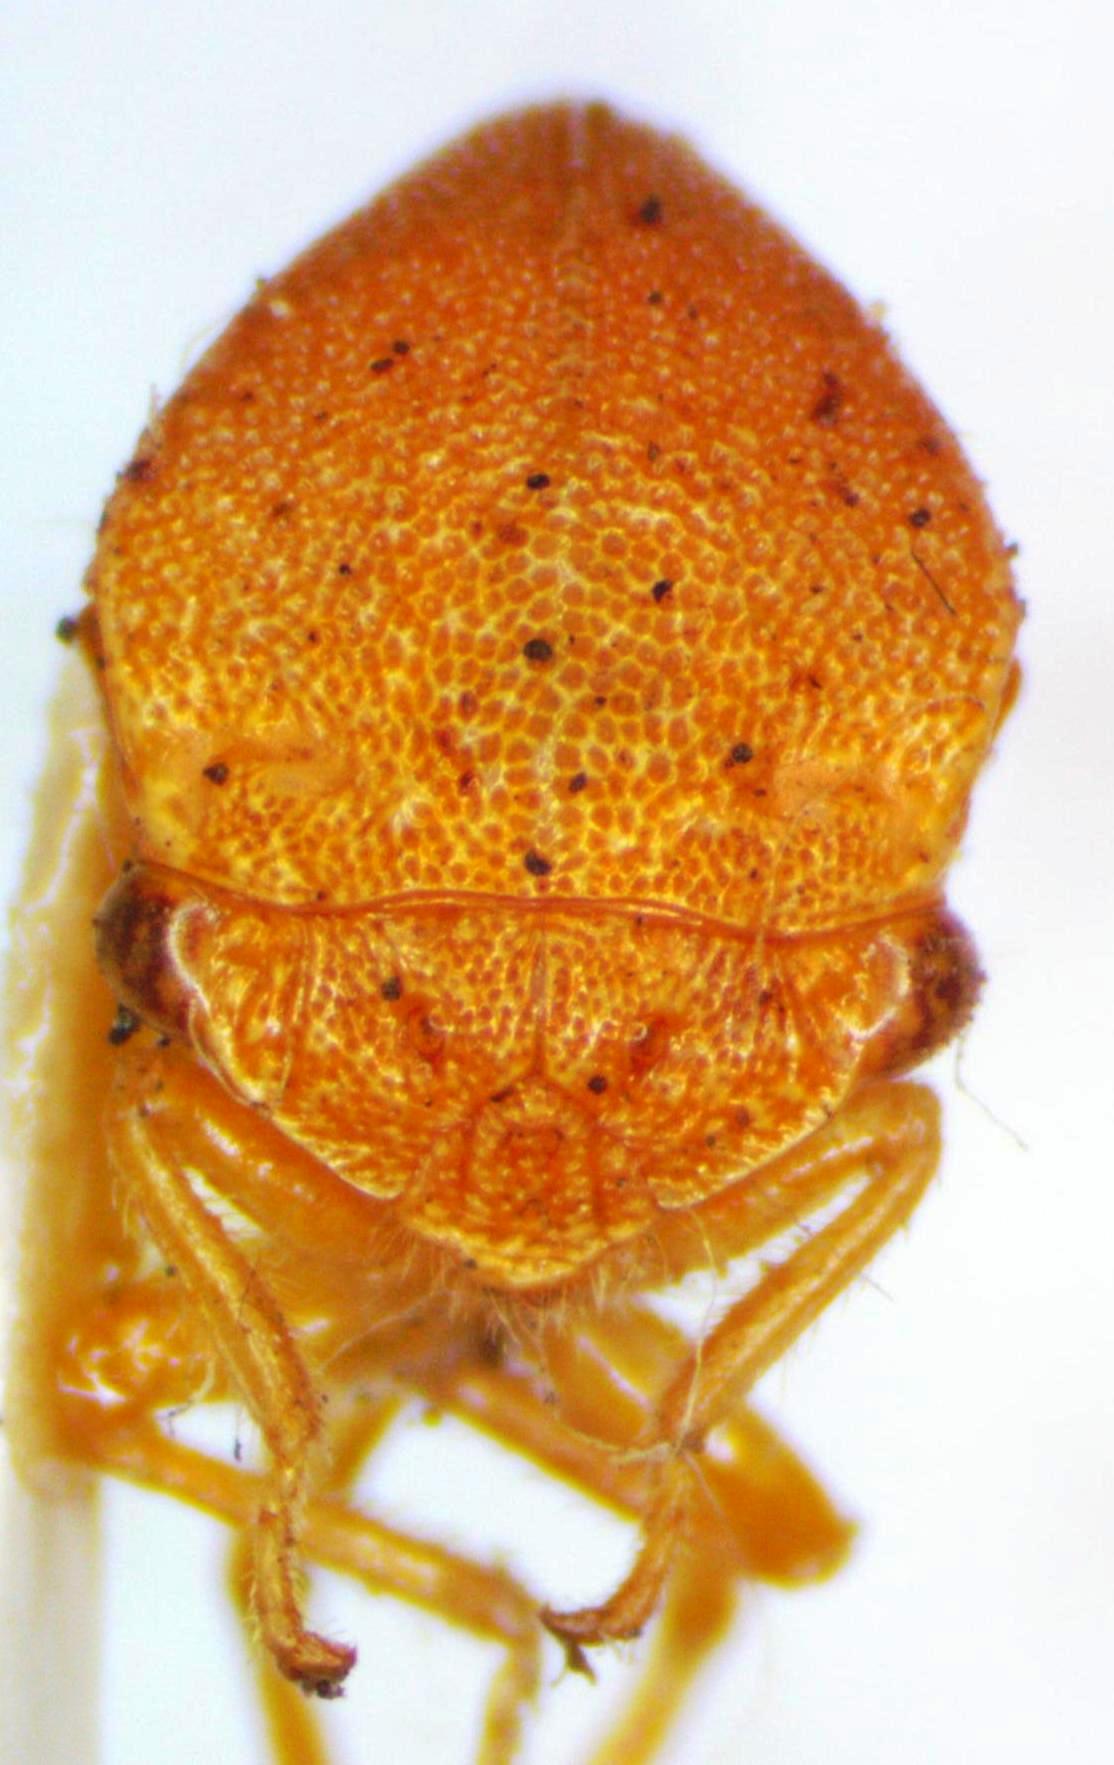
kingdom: Animalia
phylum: Arthropoda
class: Insecta
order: Hemiptera
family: Membracidae
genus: Spissistilus
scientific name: Spissistilus festina
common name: Membracid bug
